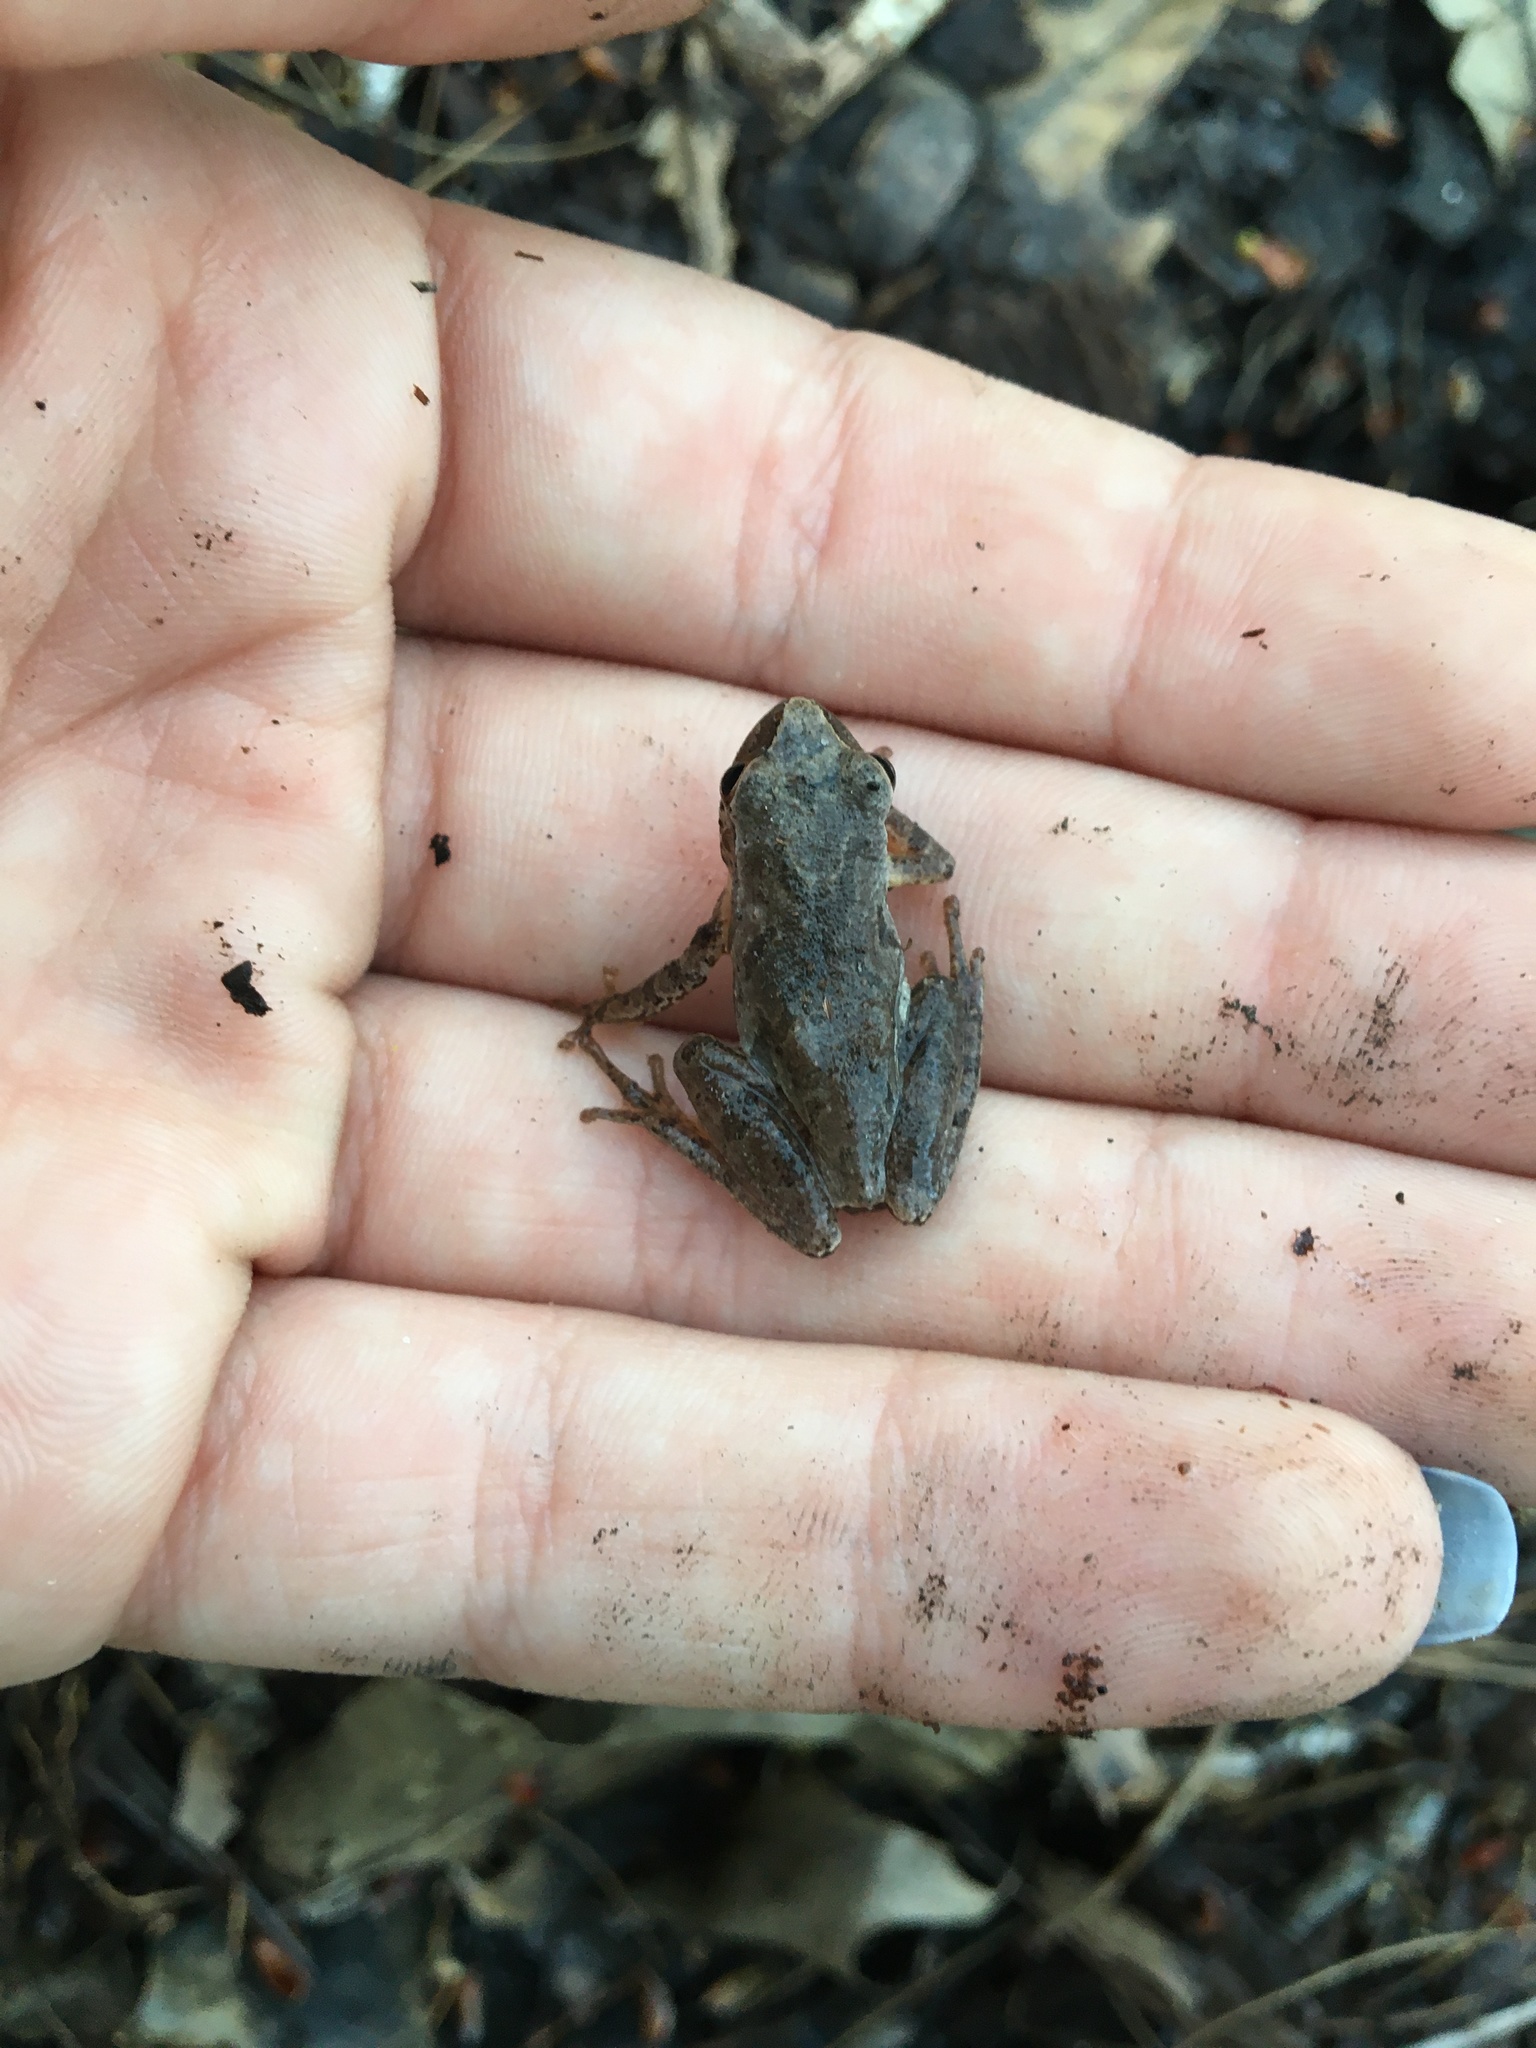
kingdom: Animalia
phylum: Chordata
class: Amphibia
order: Anura
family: Hylidae
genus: Pseudacris
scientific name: Pseudacris crucifer
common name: Spring peeper
